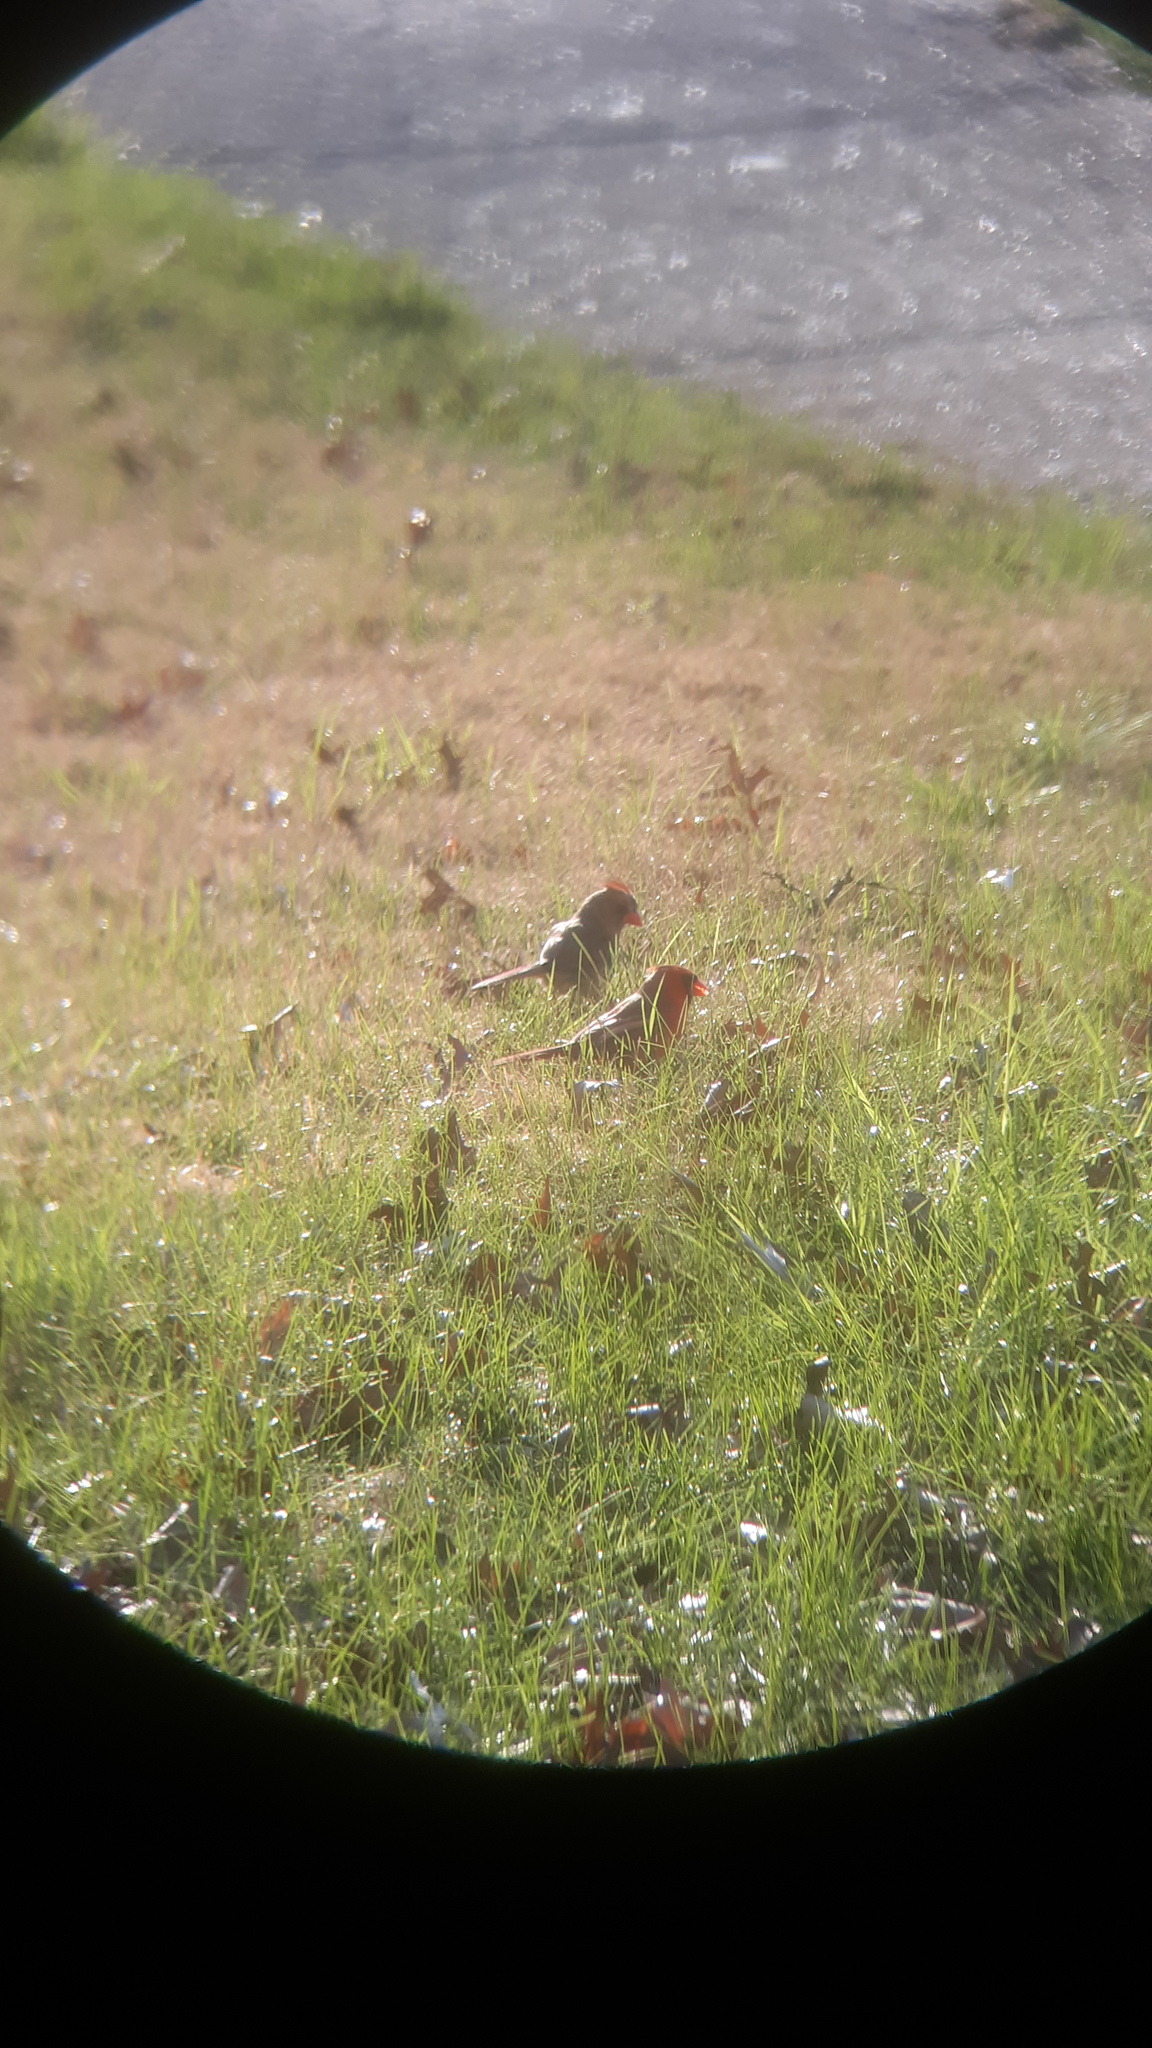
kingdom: Animalia
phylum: Chordata
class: Aves
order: Passeriformes
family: Cardinalidae
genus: Cardinalis
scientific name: Cardinalis cardinalis
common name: Northern cardinal
